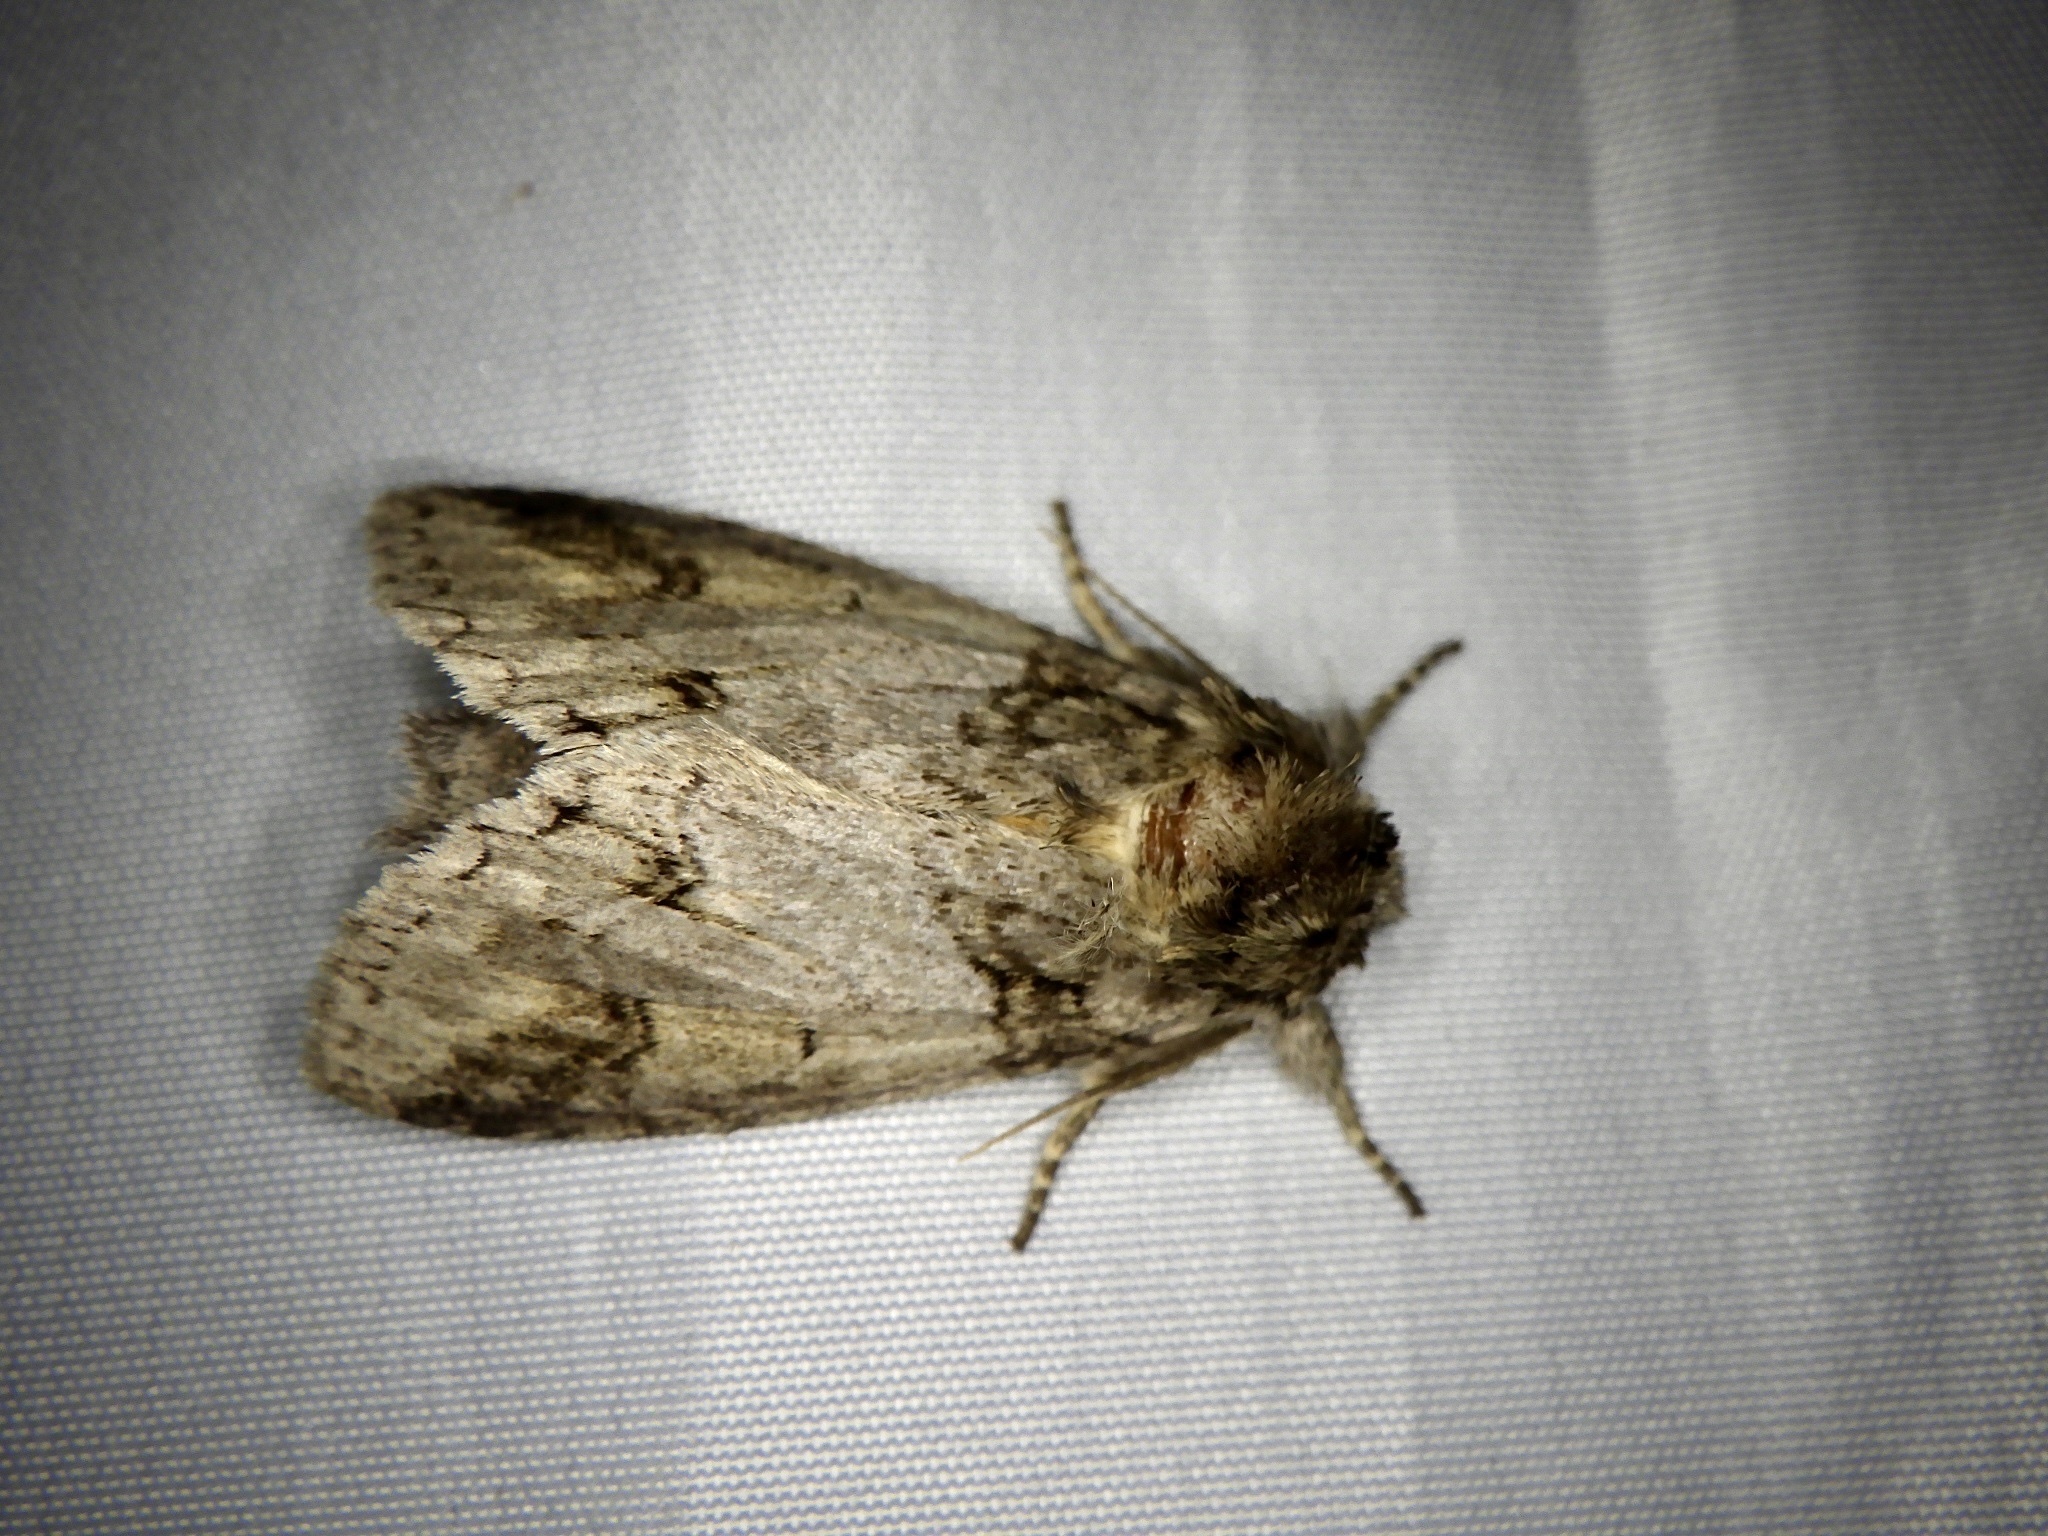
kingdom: Animalia
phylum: Arthropoda
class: Insecta
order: Lepidoptera
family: Notodontidae
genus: Neodrymonia
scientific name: Neodrymonia delia
